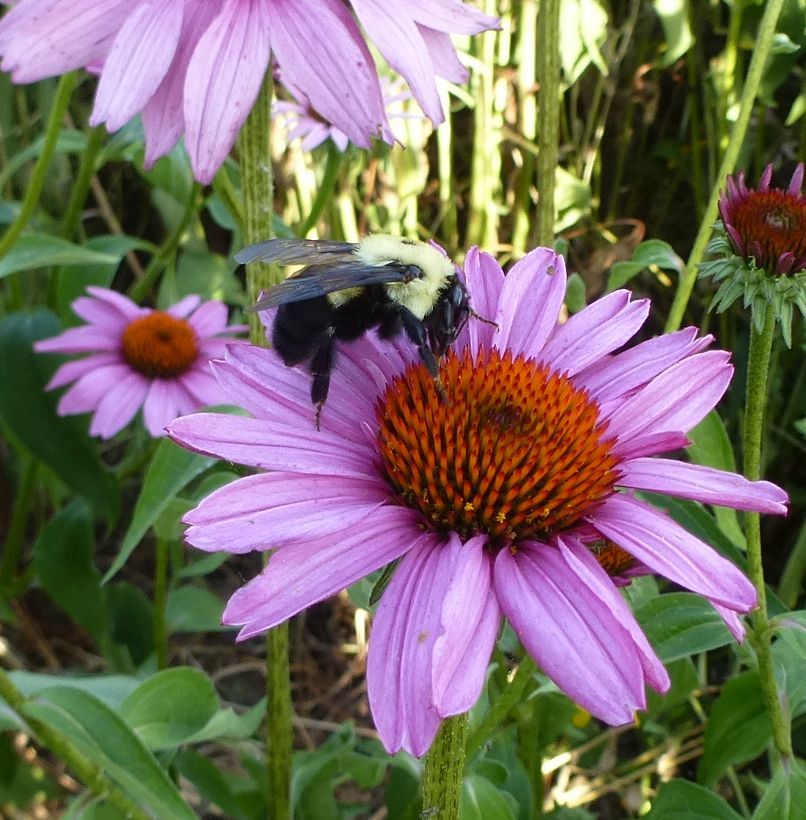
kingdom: Animalia
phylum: Arthropoda
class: Insecta
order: Hymenoptera
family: Apidae
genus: Bombus
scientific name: Bombus griseocollis
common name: Brown-belted bumble bee
